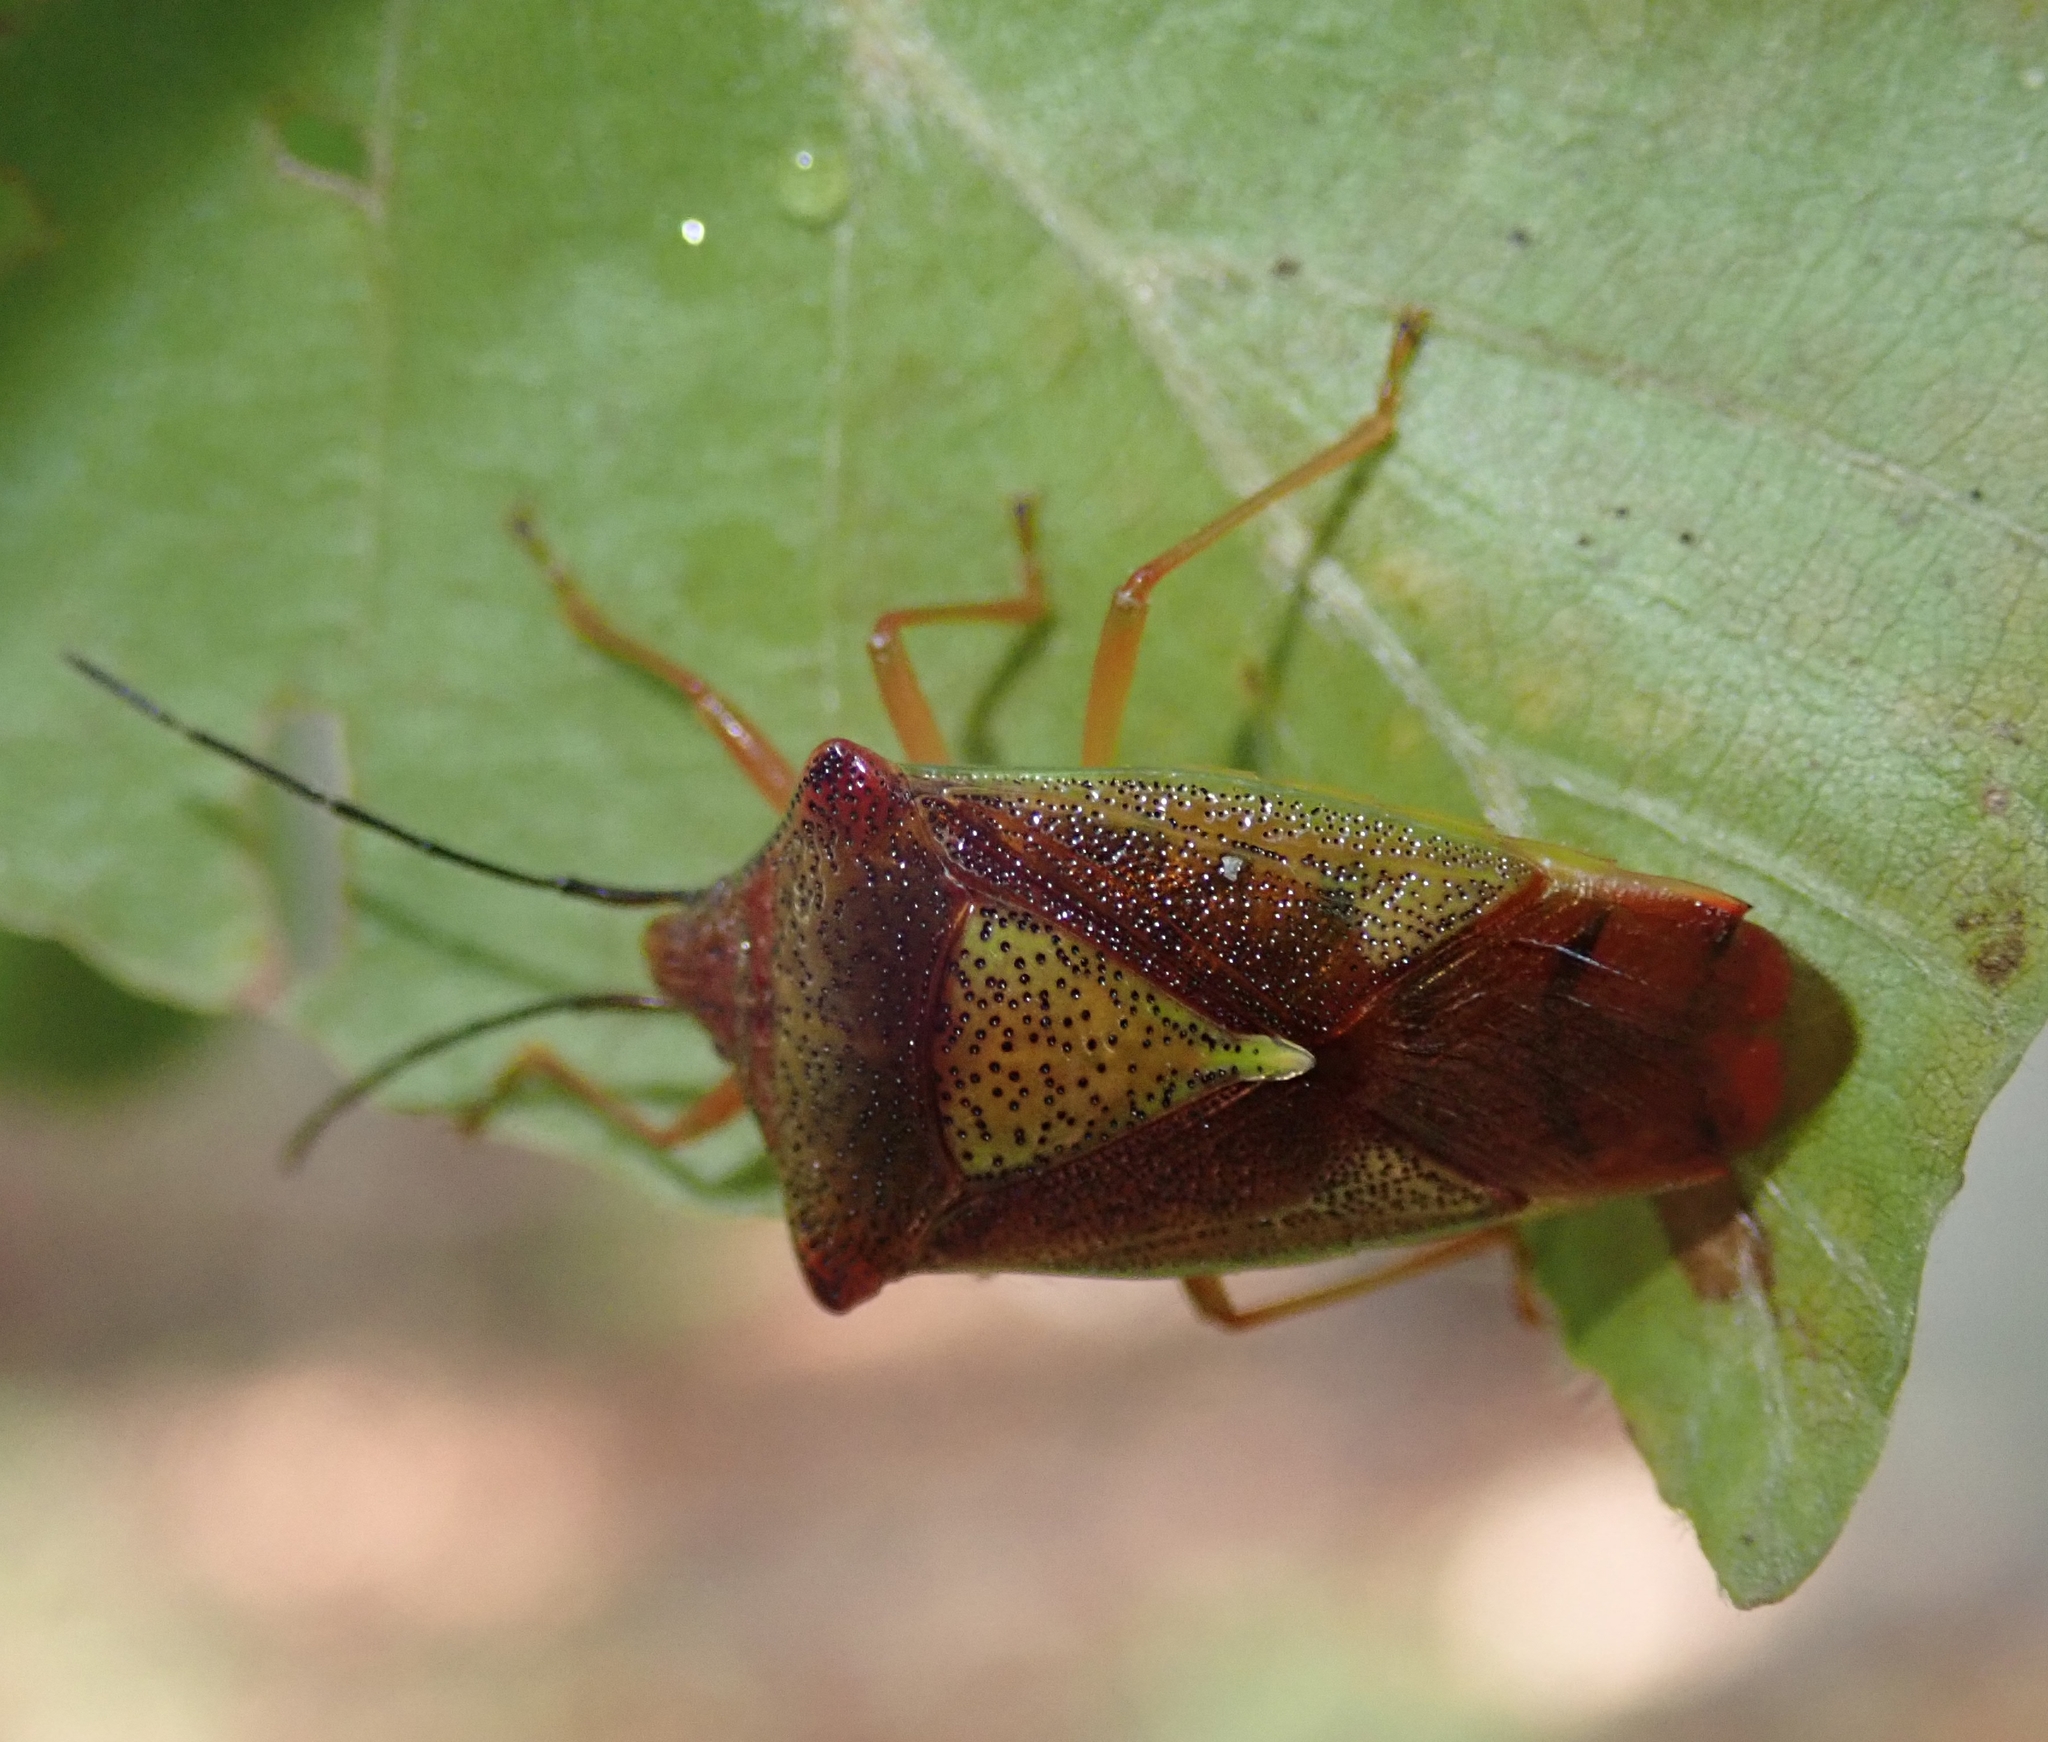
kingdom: Animalia
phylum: Arthropoda
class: Insecta
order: Hemiptera
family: Acanthosomatidae
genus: Acanthosoma
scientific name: Acanthosoma haemorrhoidale
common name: Hawthorn shieldbug
